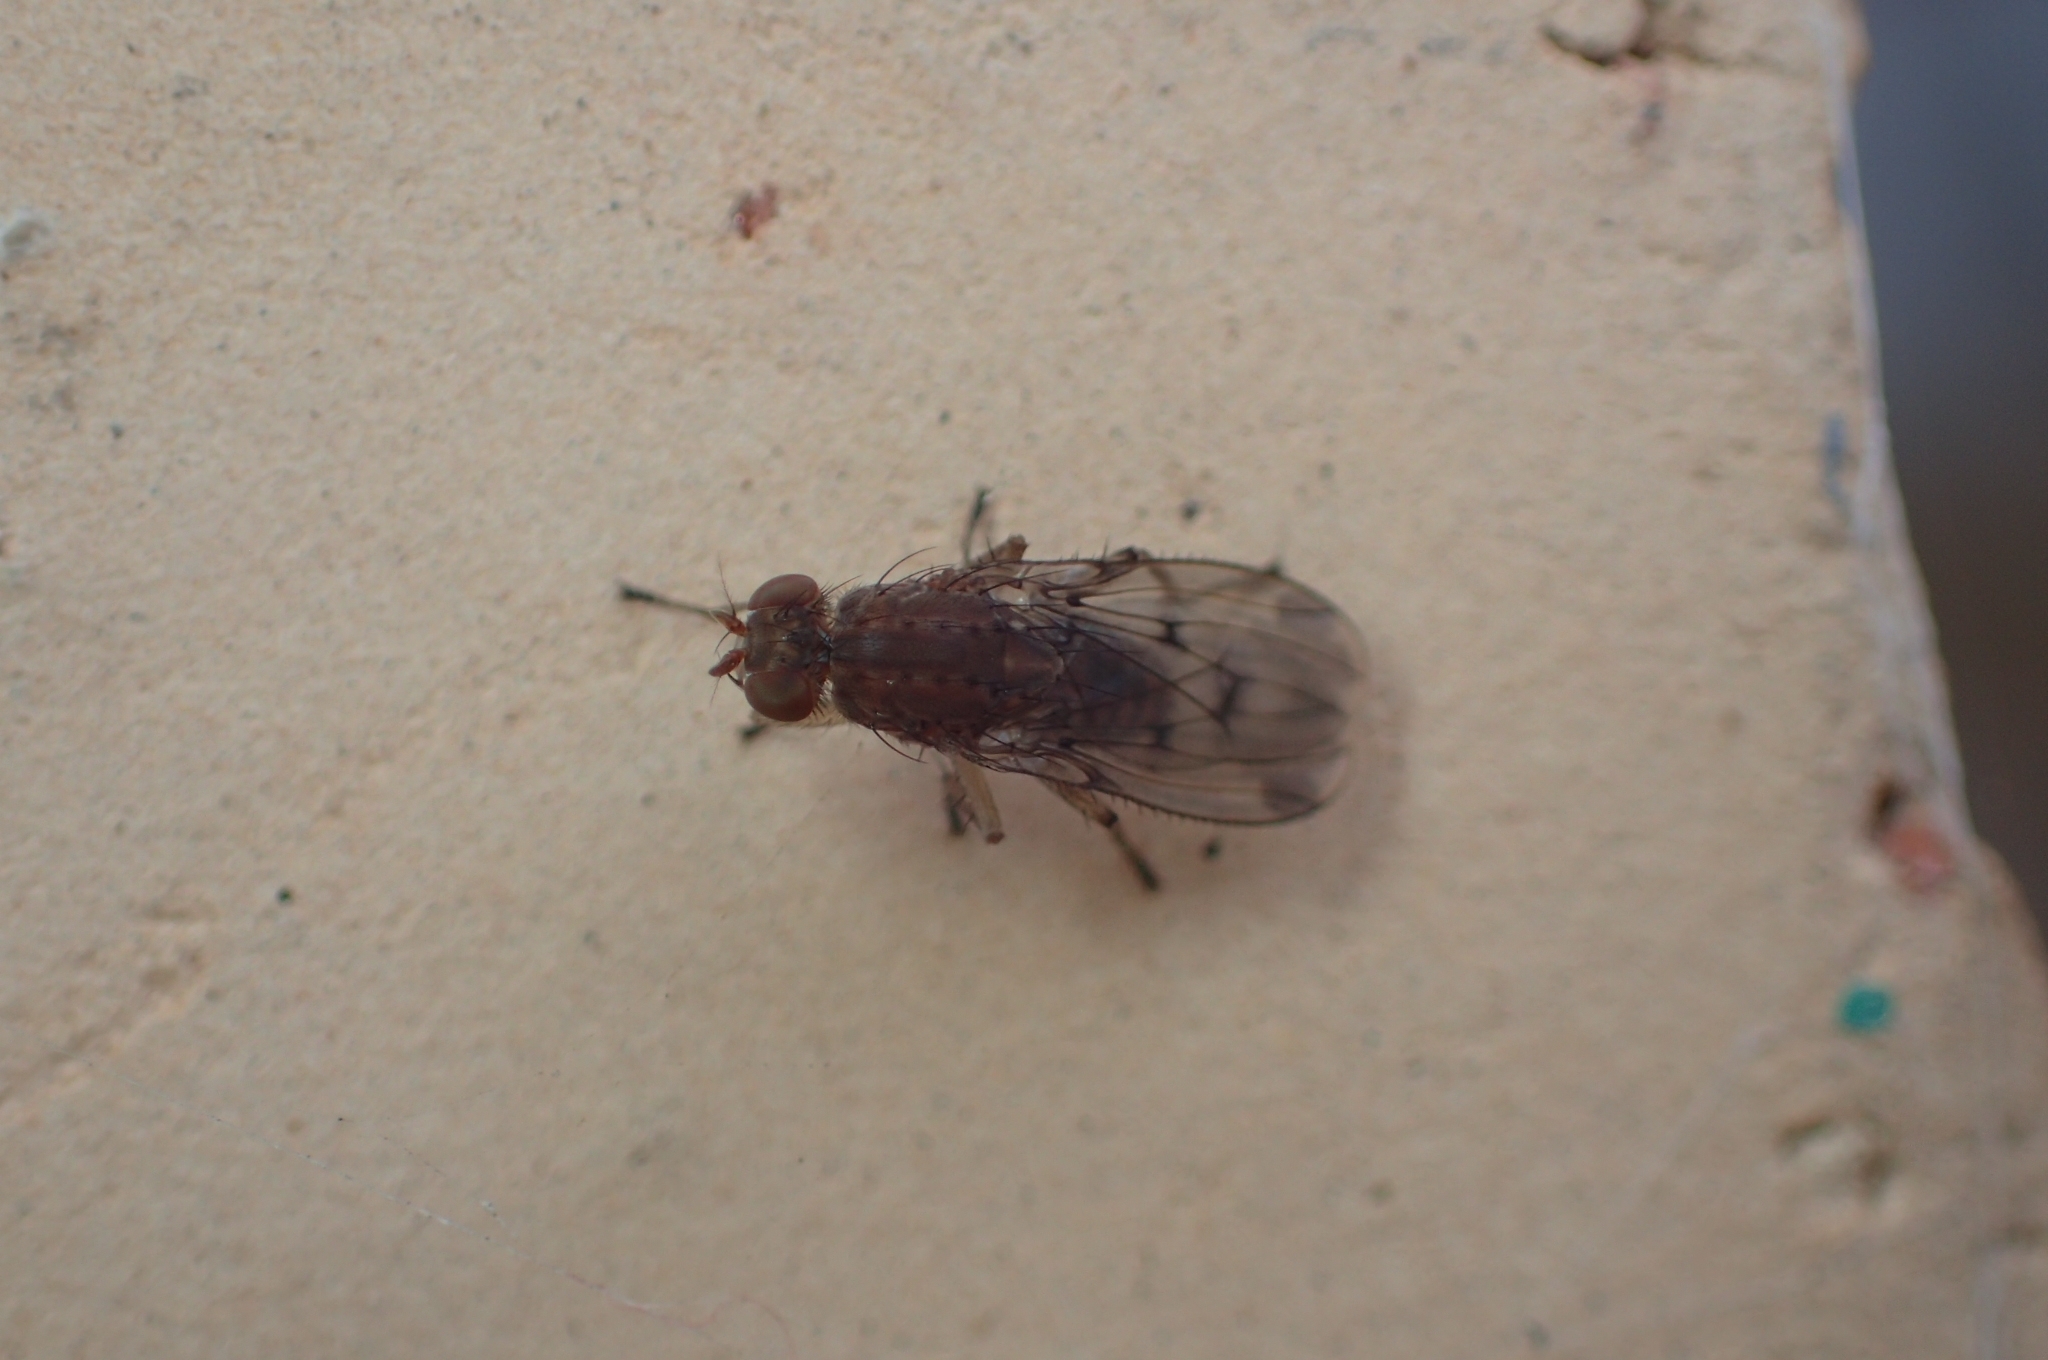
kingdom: Animalia
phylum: Arthropoda
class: Insecta
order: Diptera
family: Heleomyzidae
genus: Suillia
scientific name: Suillia variegata
